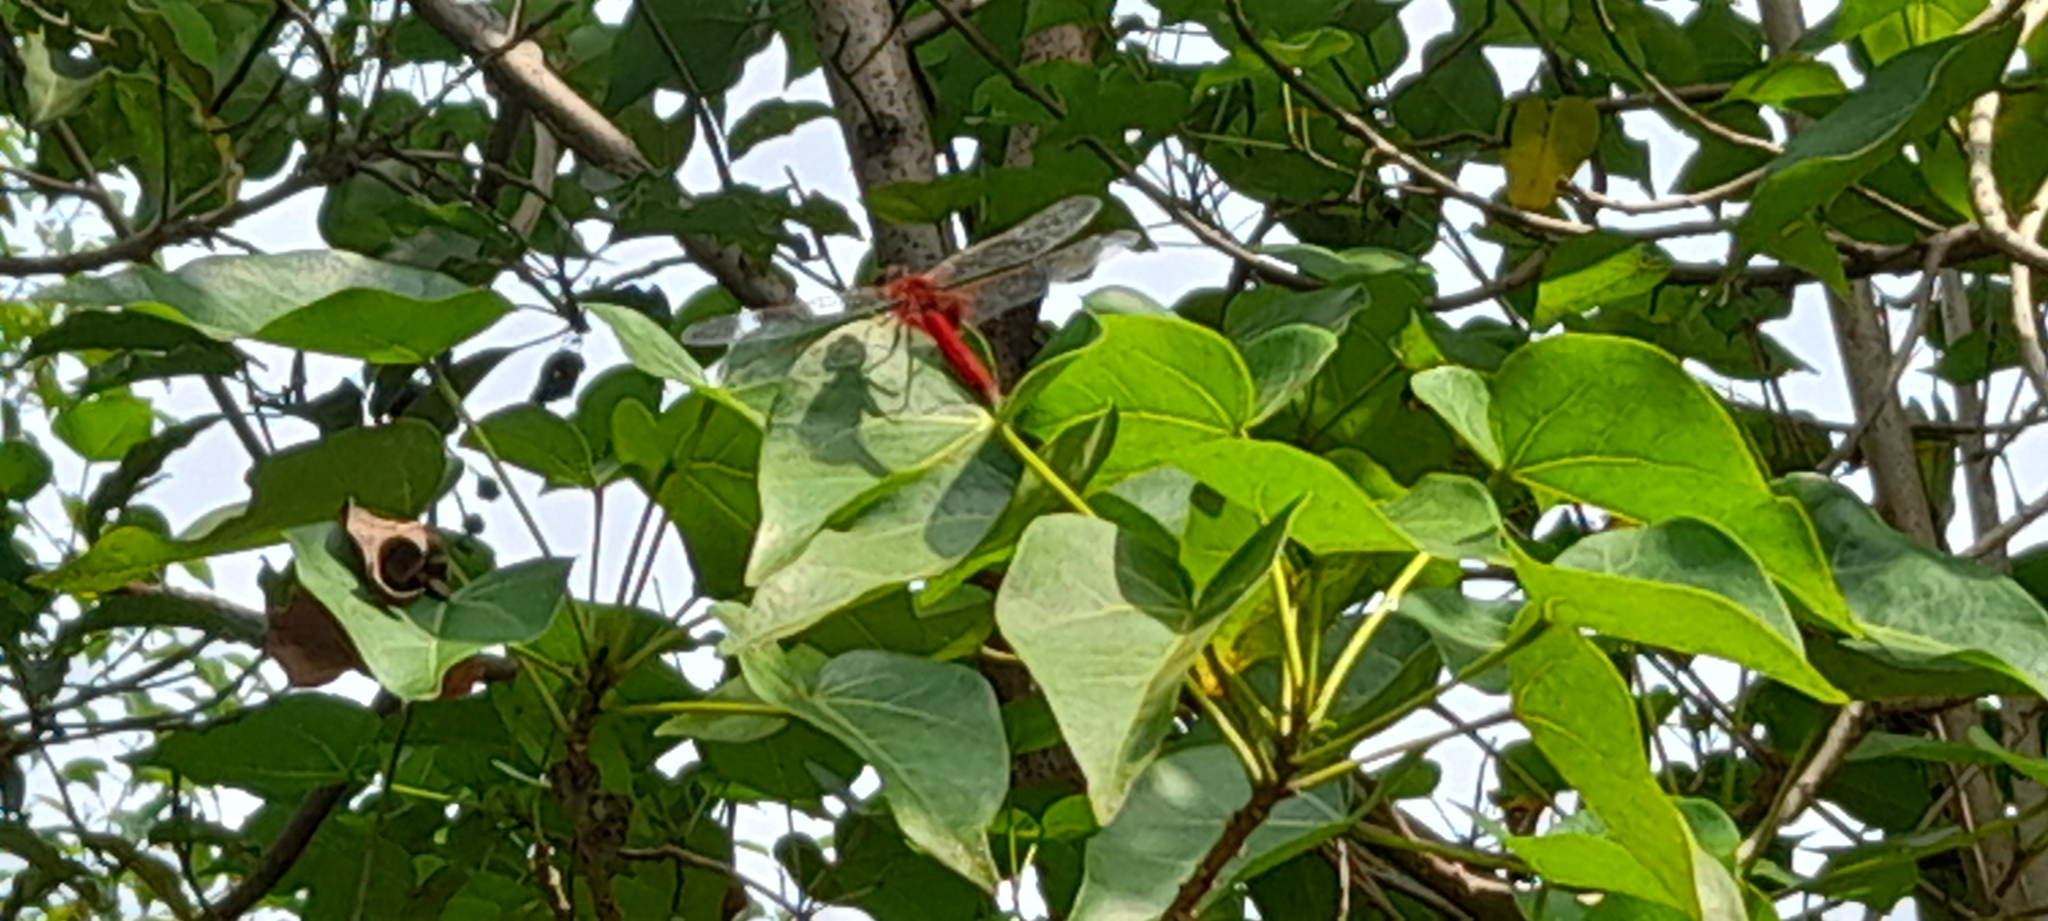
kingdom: Animalia
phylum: Arthropoda
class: Insecta
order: Odonata
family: Libellulidae
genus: Urothemis
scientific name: Urothemis signata
